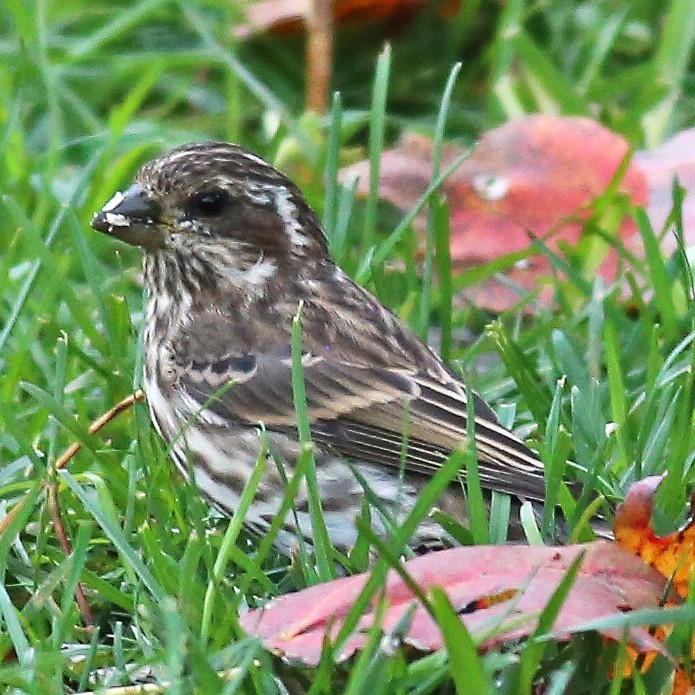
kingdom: Animalia
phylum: Chordata
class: Aves
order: Passeriformes
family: Fringillidae
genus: Haemorhous
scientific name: Haemorhous purpureus
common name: Purple finch
